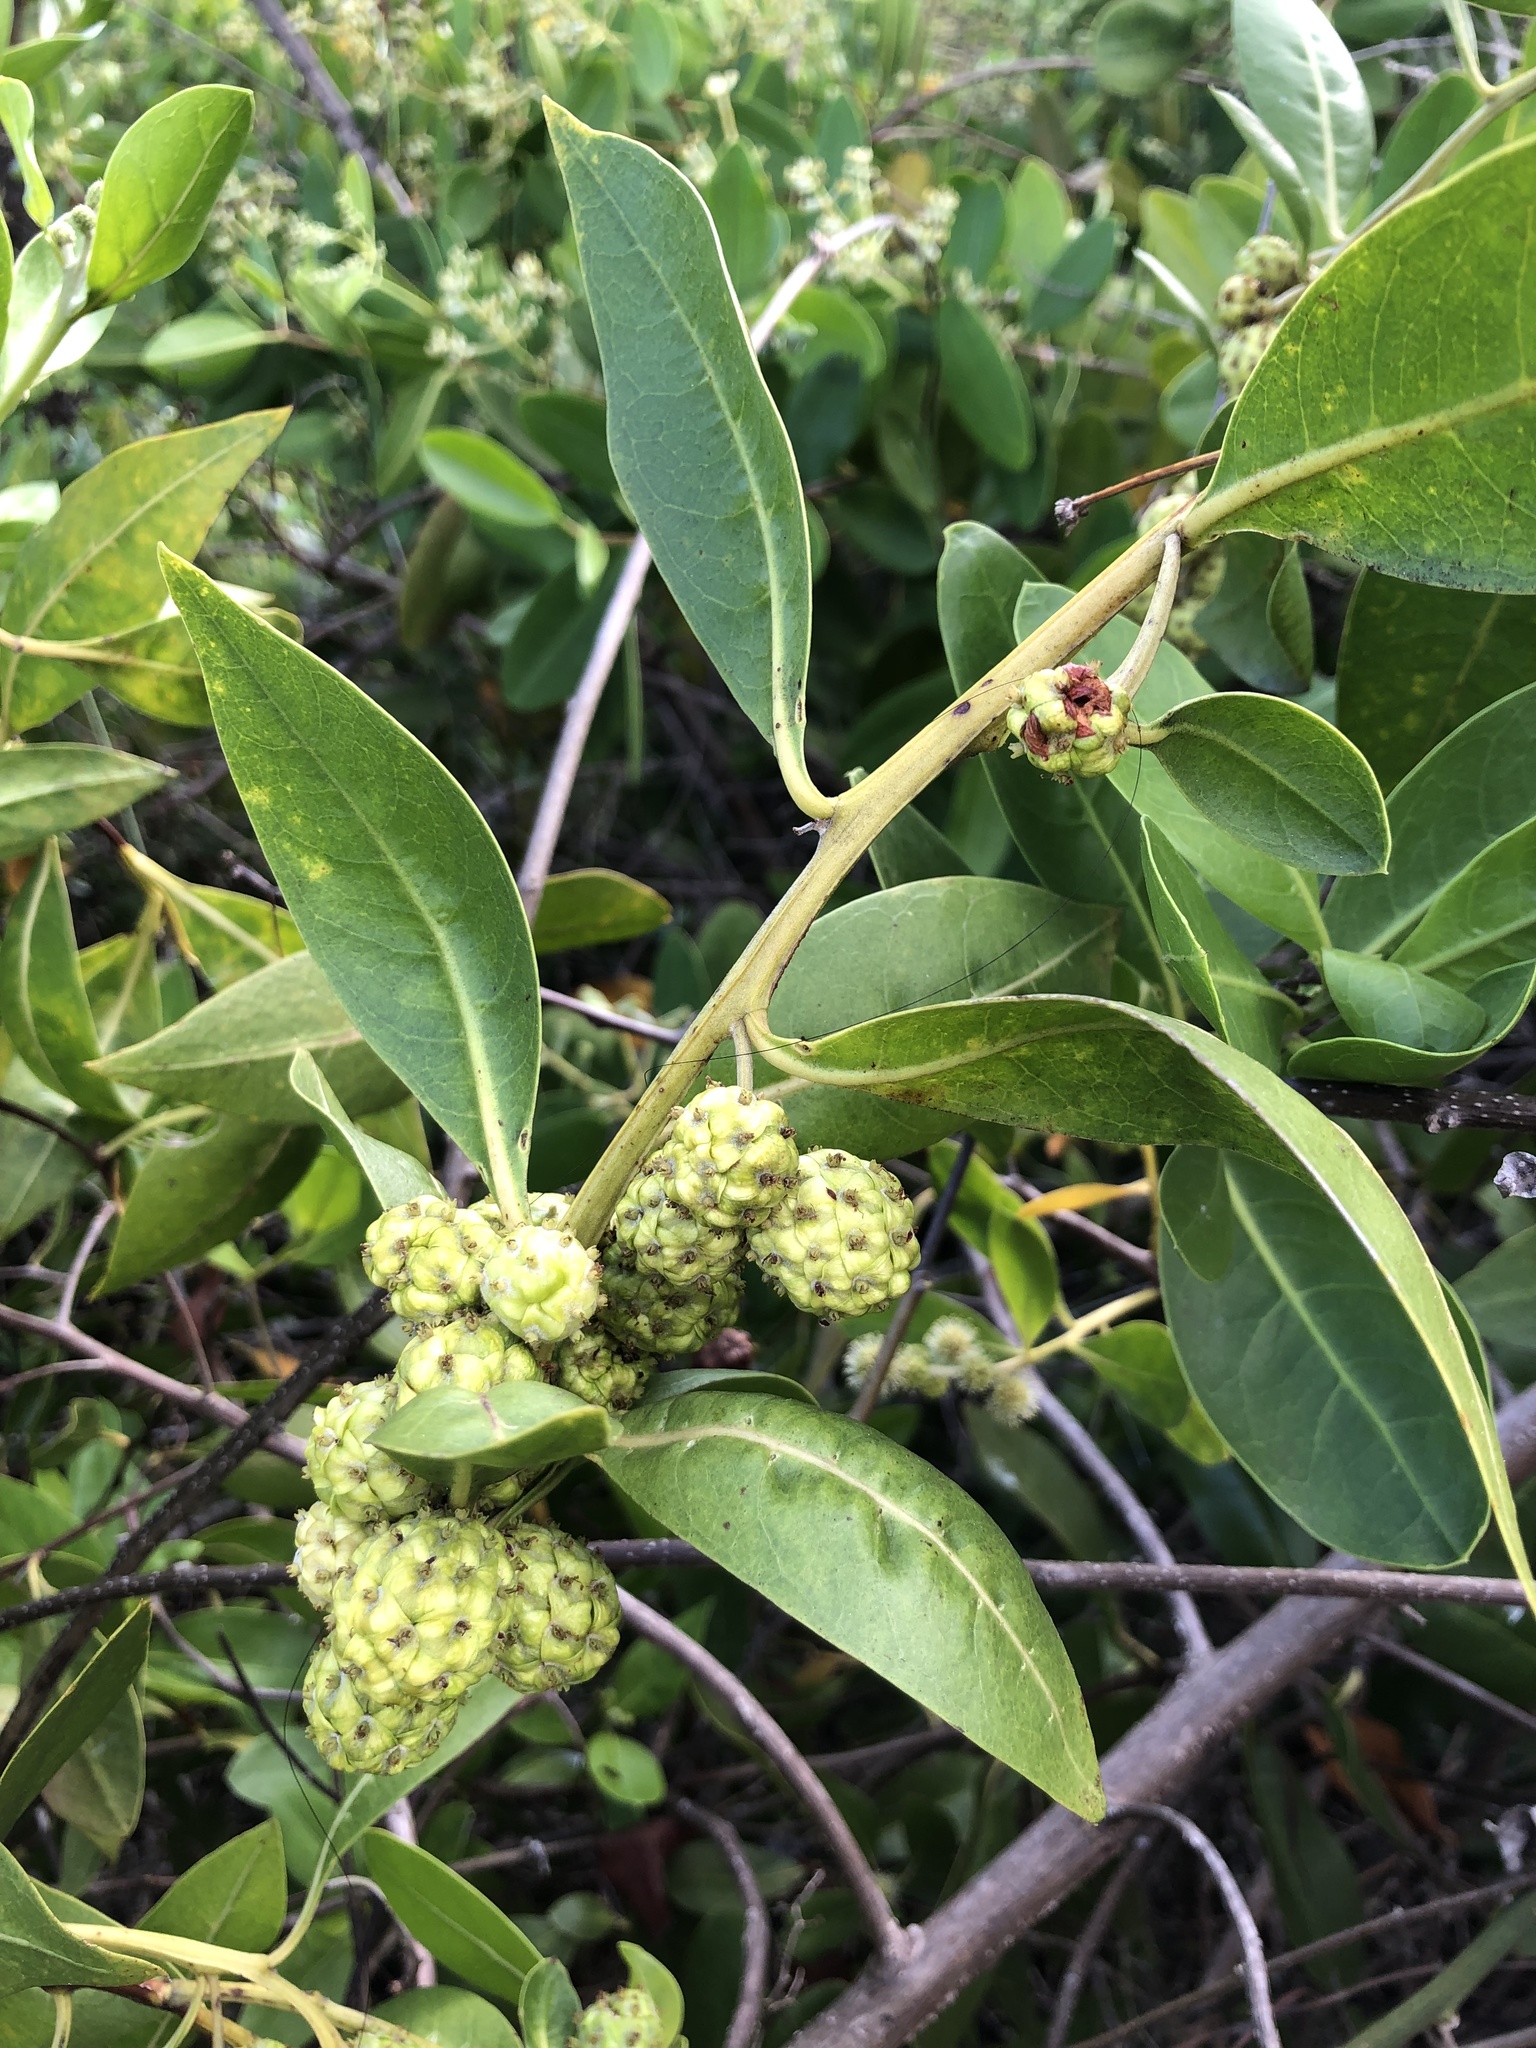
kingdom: Plantae
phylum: Tracheophyta
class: Magnoliopsida
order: Myrtales
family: Combretaceae
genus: Conocarpus
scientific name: Conocarpus erectus
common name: Button mangrove
